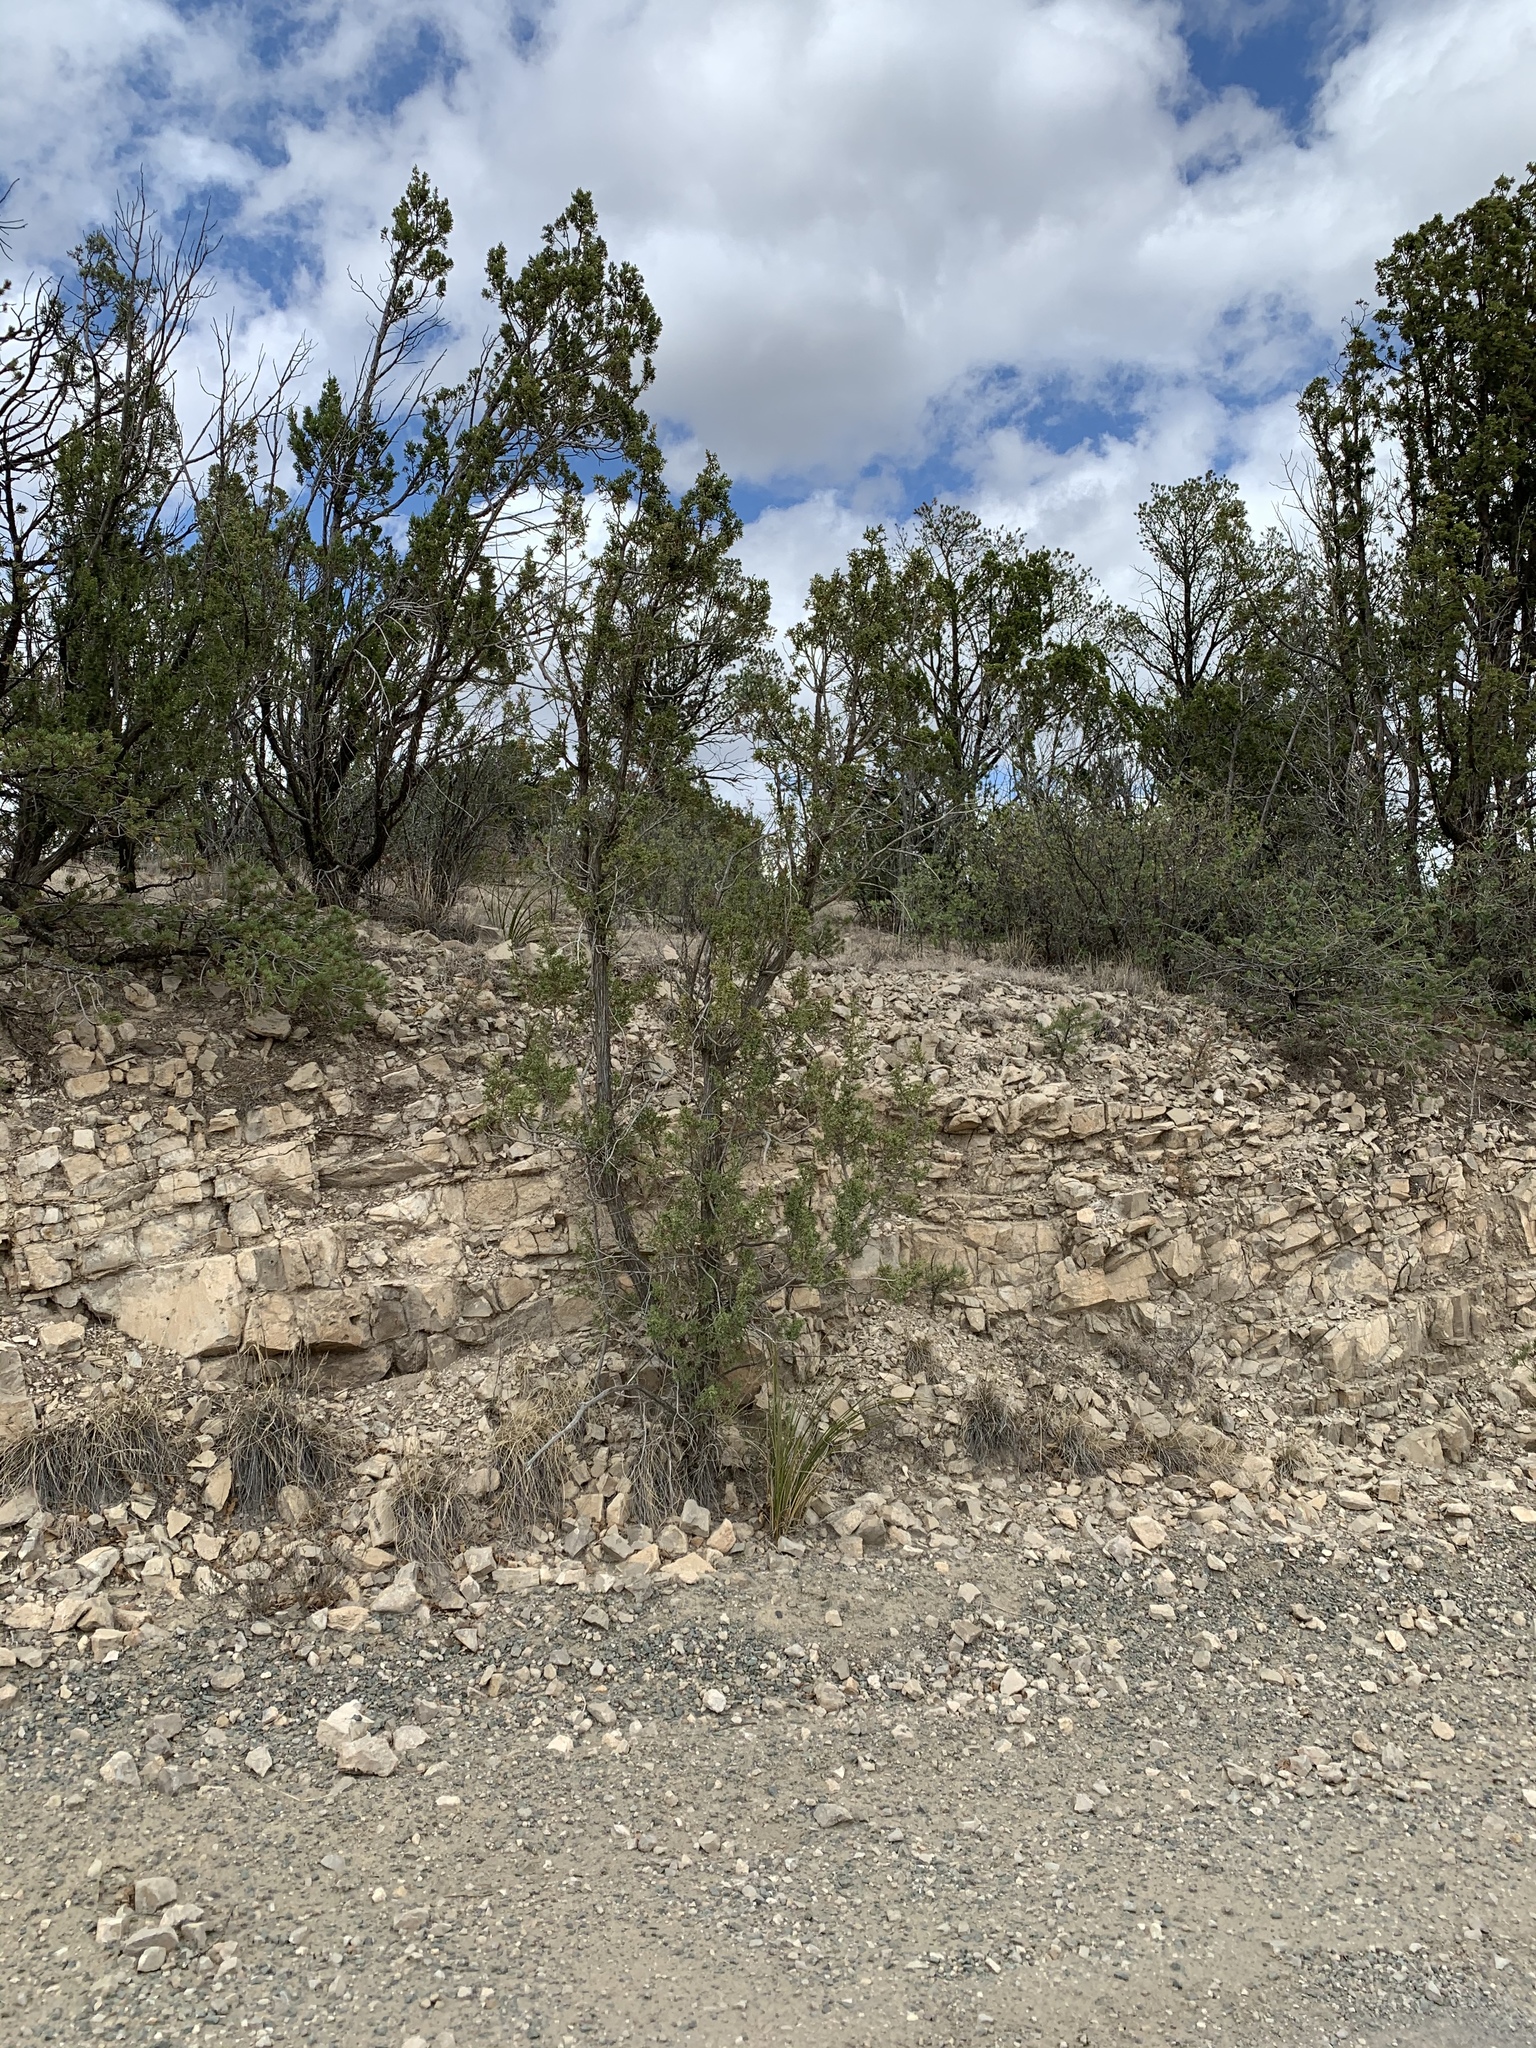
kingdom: Plantae
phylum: Tracheophyta
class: Pinopsida
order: Pinales
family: Cupressaceae
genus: Juniperus
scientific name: Juniperus monosperma
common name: One-seed juniper
